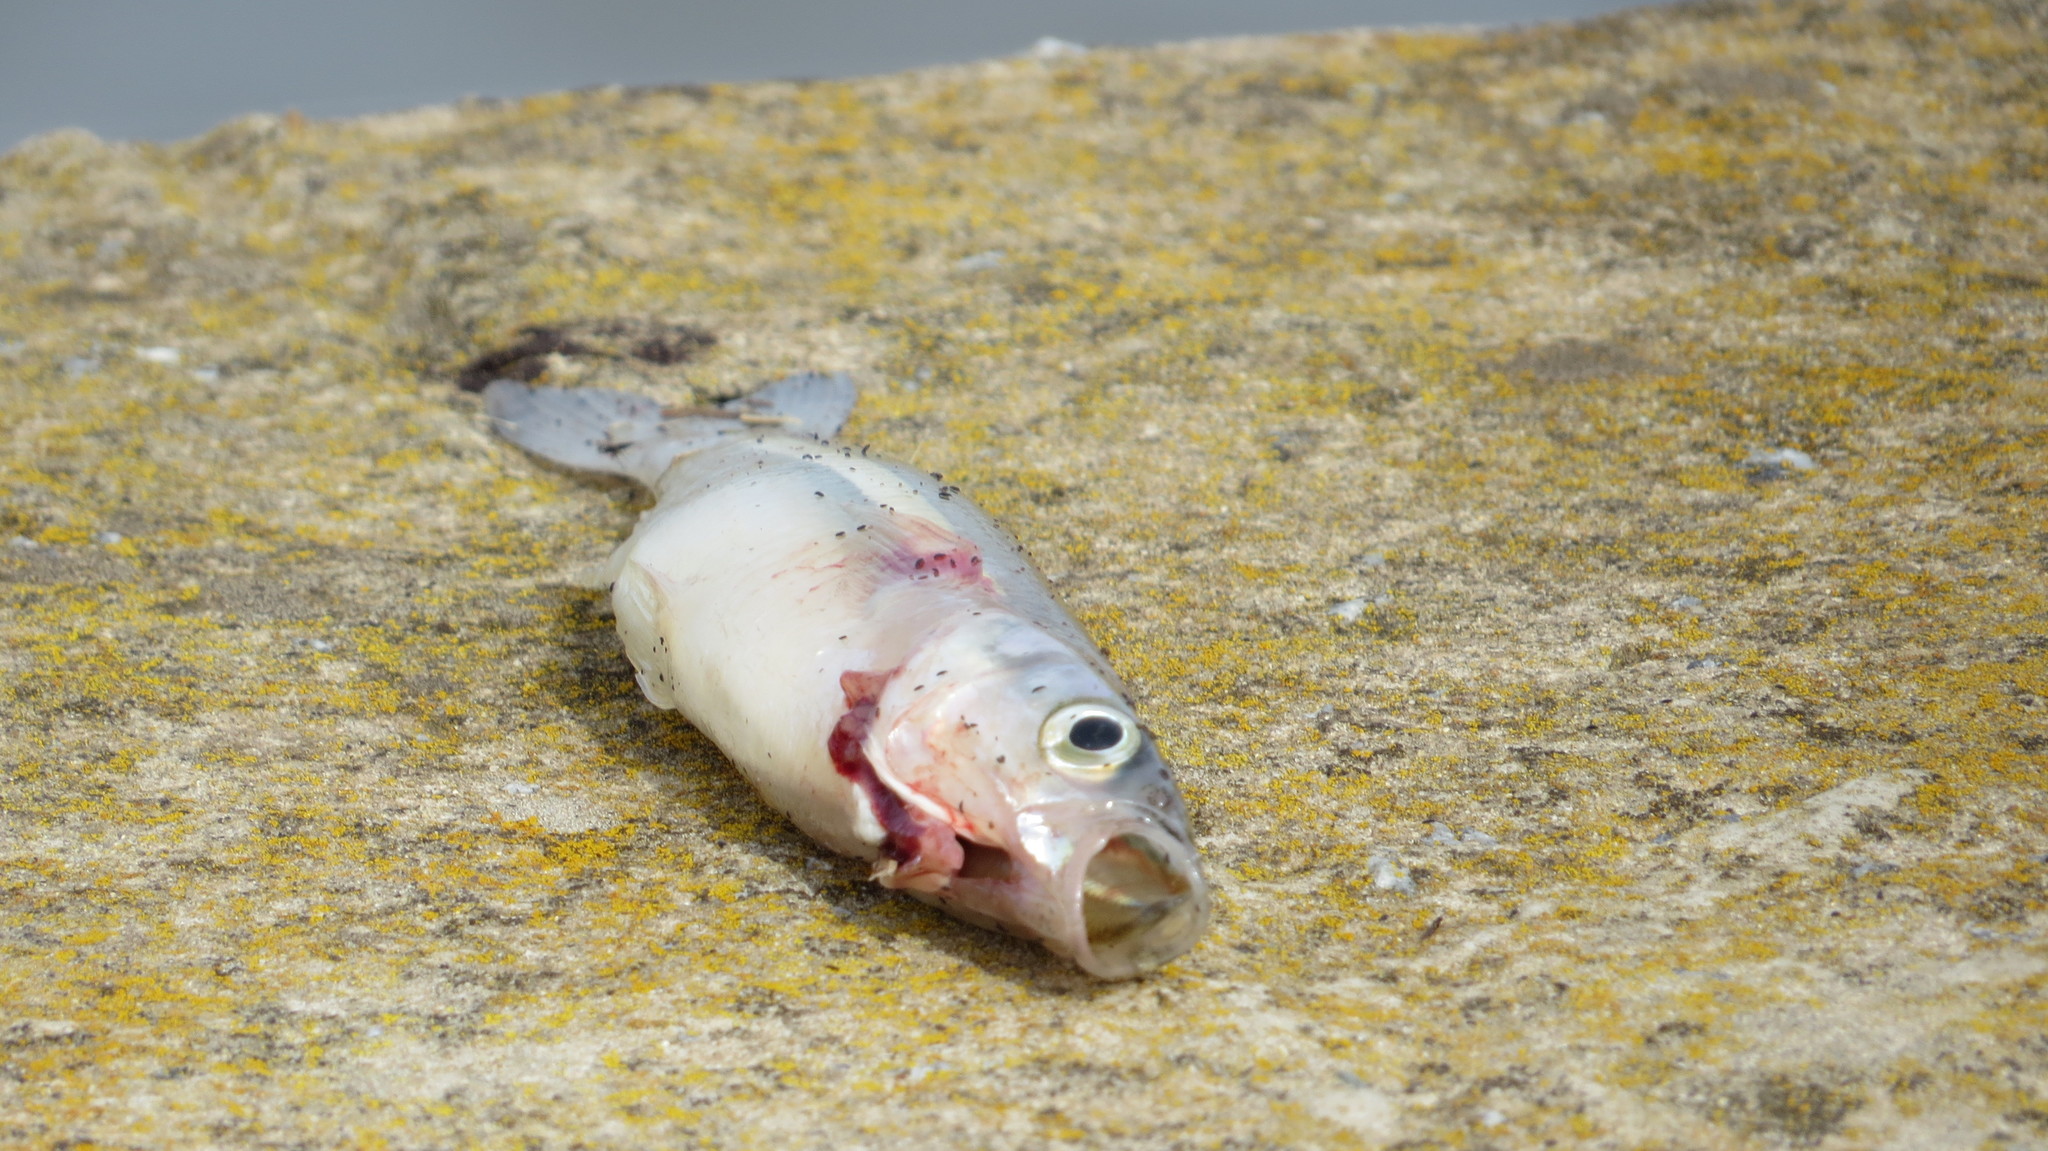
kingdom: Animalia
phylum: Chordata
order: Atheriniformes
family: Atherinopsidae
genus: Odontesthes
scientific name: Odontesthes bonariensis
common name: Argentinian silverside
